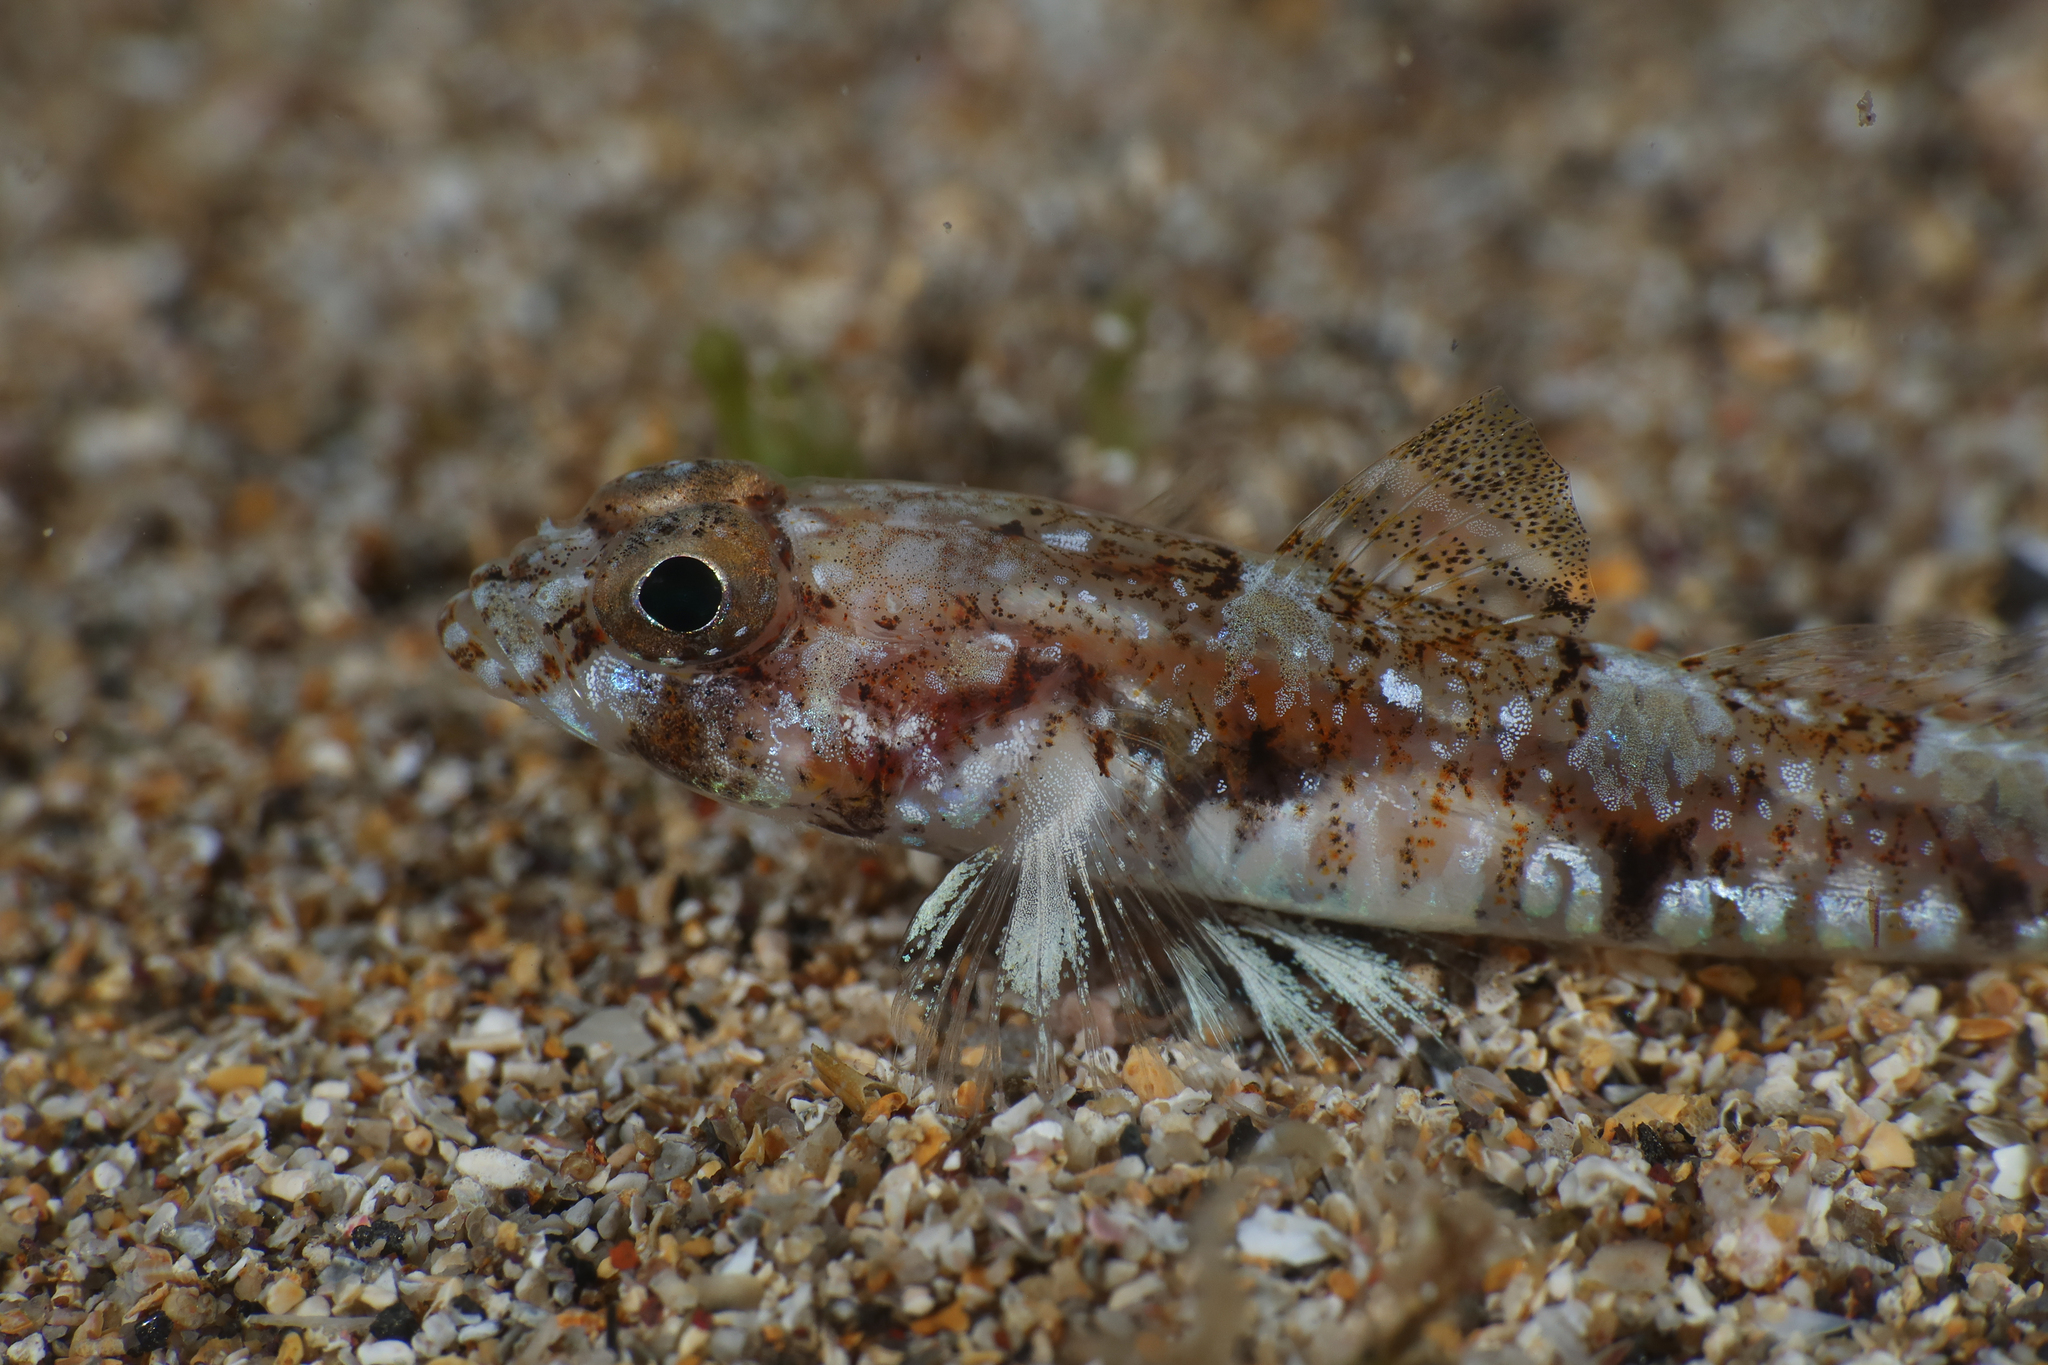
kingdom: Animalia
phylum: Chordata
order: Perciformes
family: Gobiidae
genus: Buenia
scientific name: Buenia affinis
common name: De buen's goby
